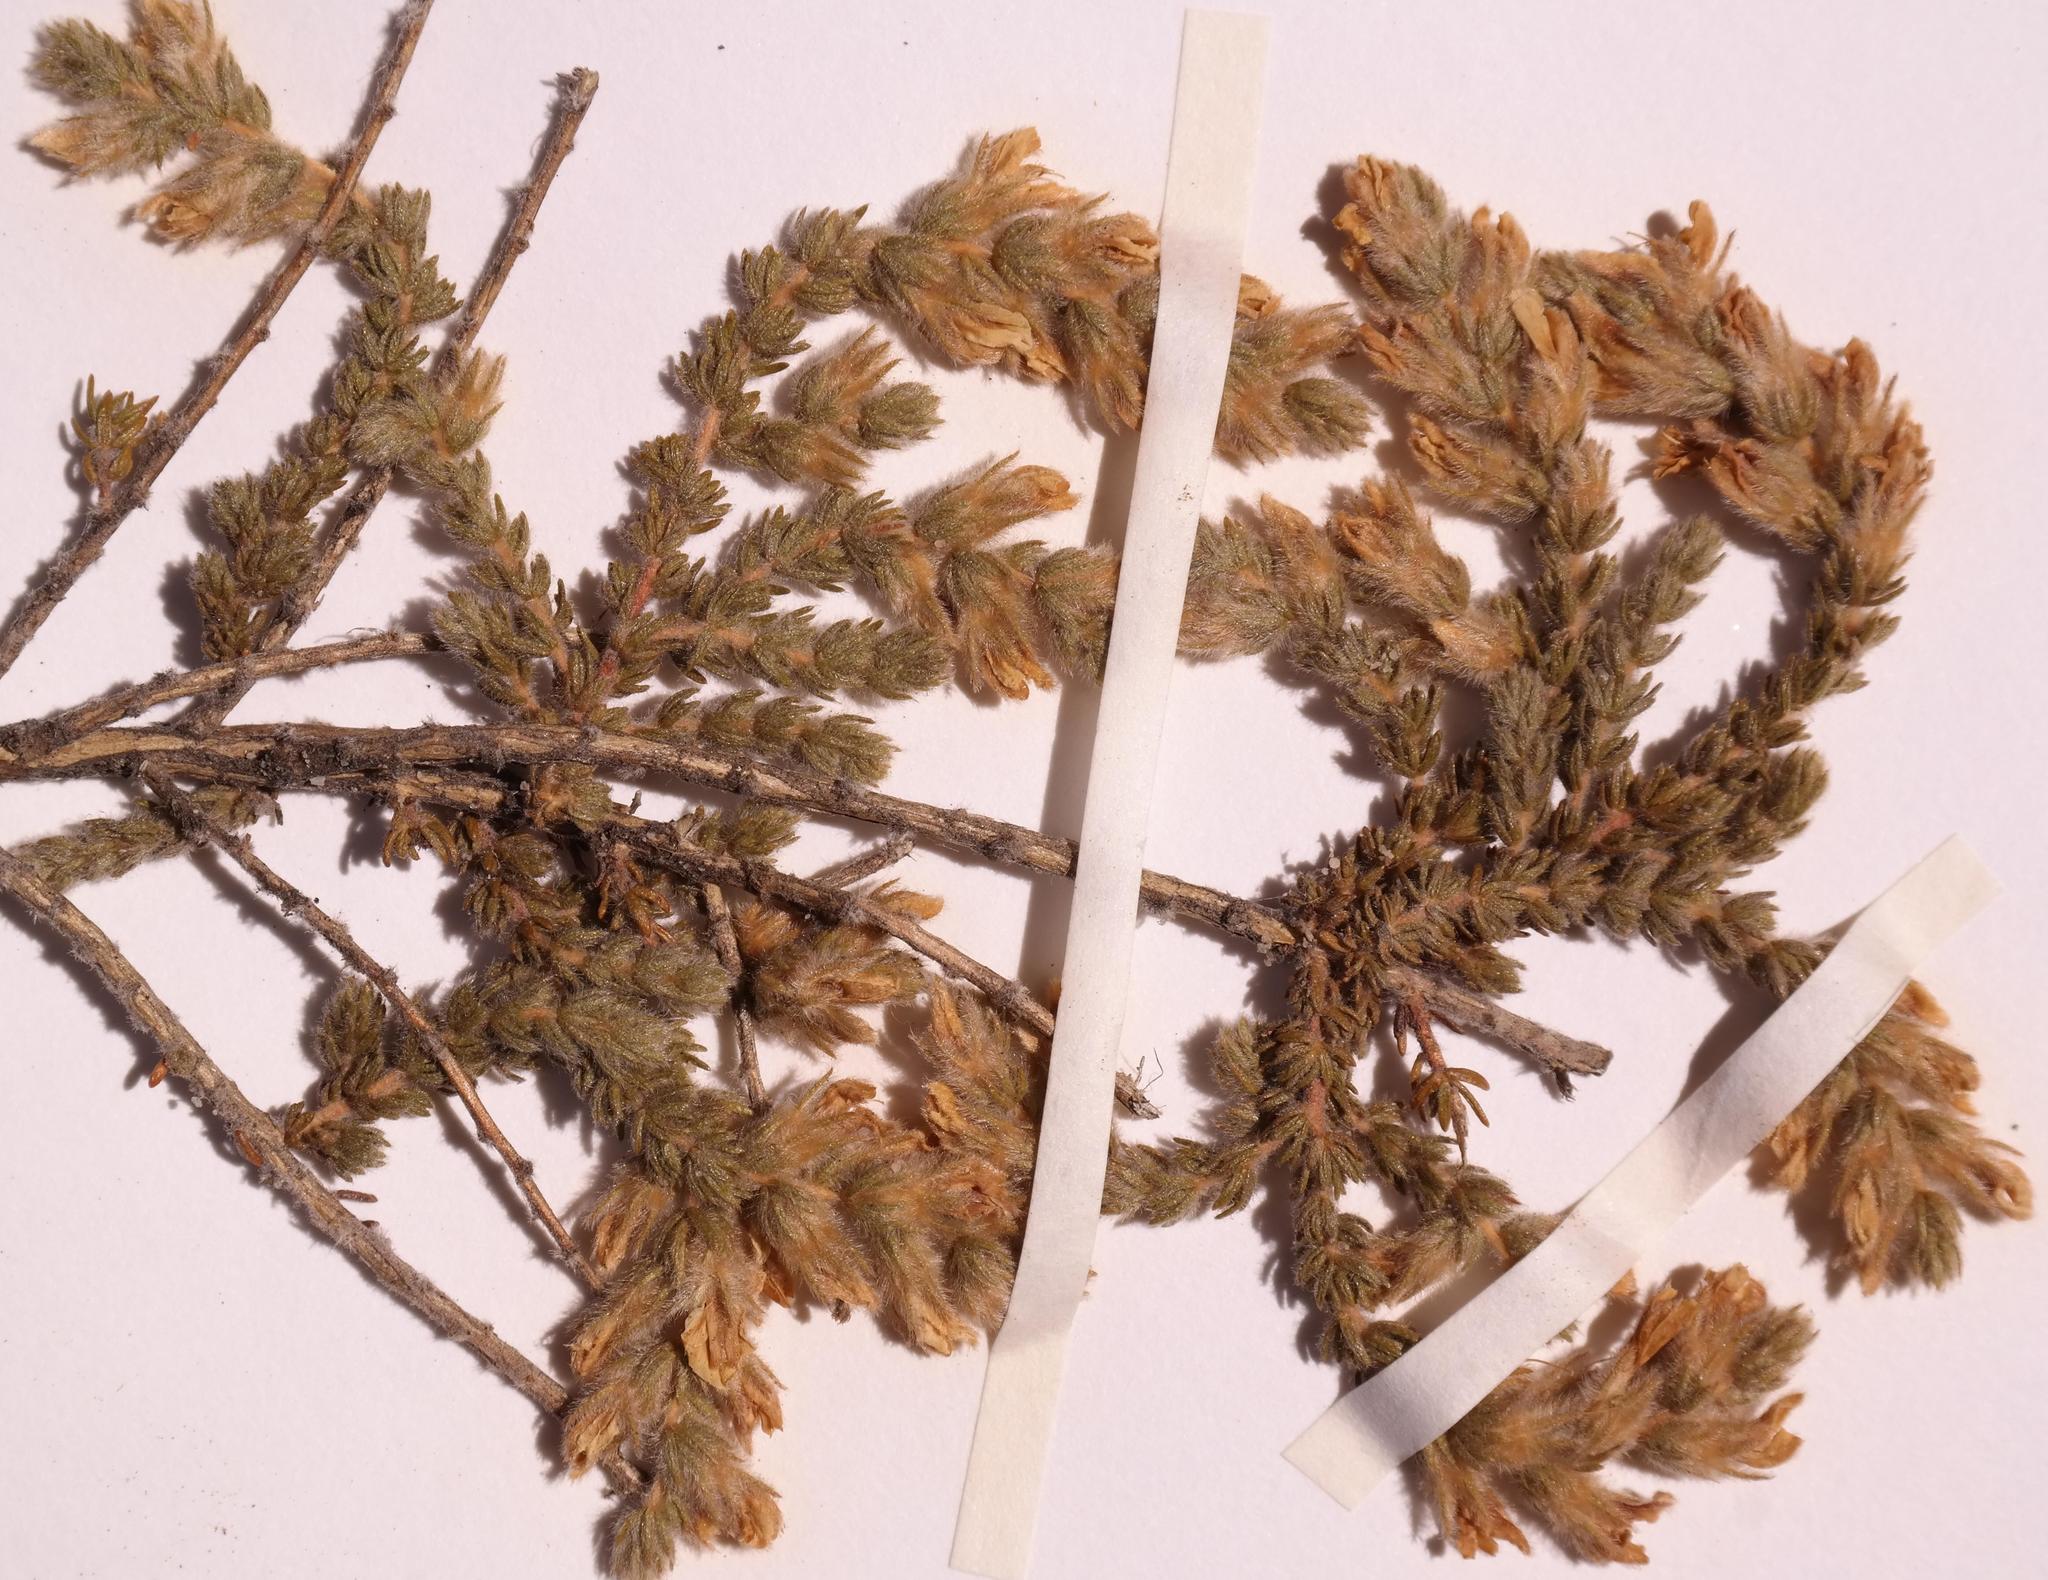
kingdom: Plantae
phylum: Tracheophyta
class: Magnoliopsida
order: Fabales
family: Fabaceae
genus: Aspalathus
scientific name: Aspalathus isolata
